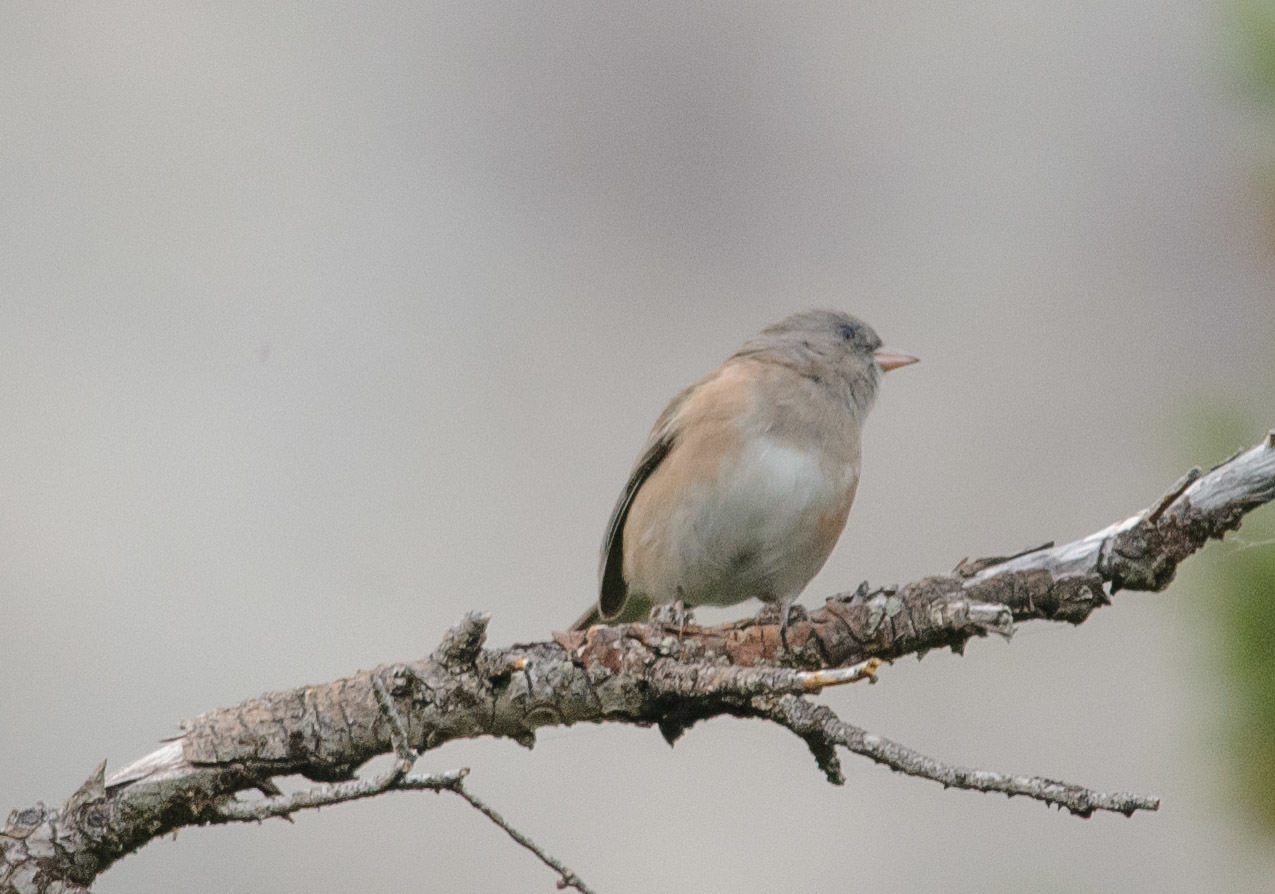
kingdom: Animalia
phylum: Chordata
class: Aves
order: Passeriformes
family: Passerellidae
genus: Junco
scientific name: Junco hyemalis
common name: Dark-eyed junco
